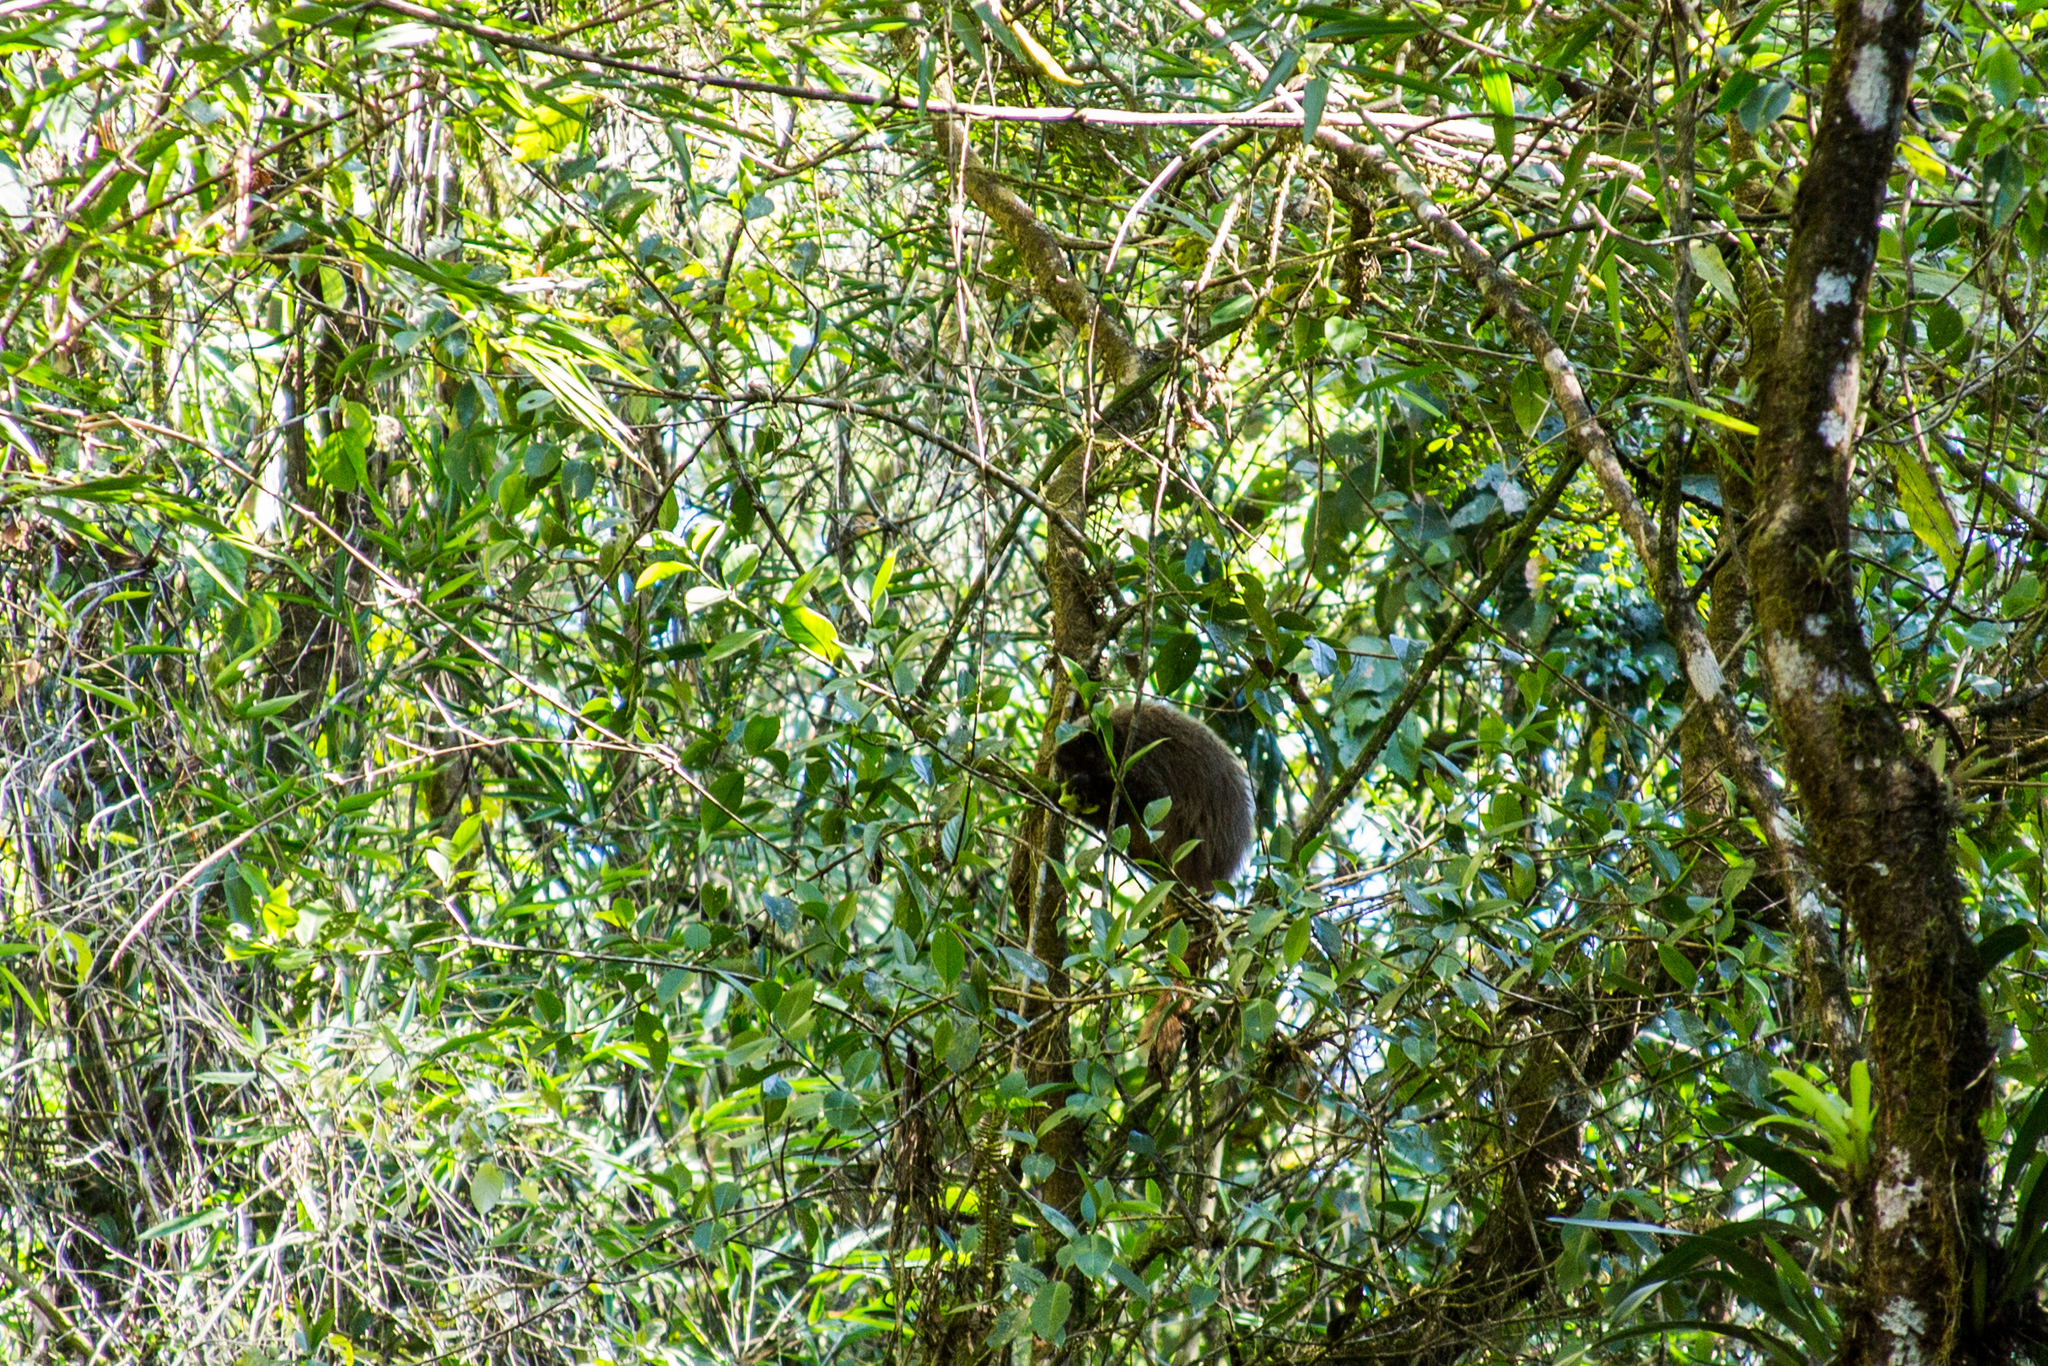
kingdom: Animalia
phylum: Chordata
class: Mammalia
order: Primates
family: Pitheciidae
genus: Callicebus
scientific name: Callicebus nigrifrons
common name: Black-fronted titi
